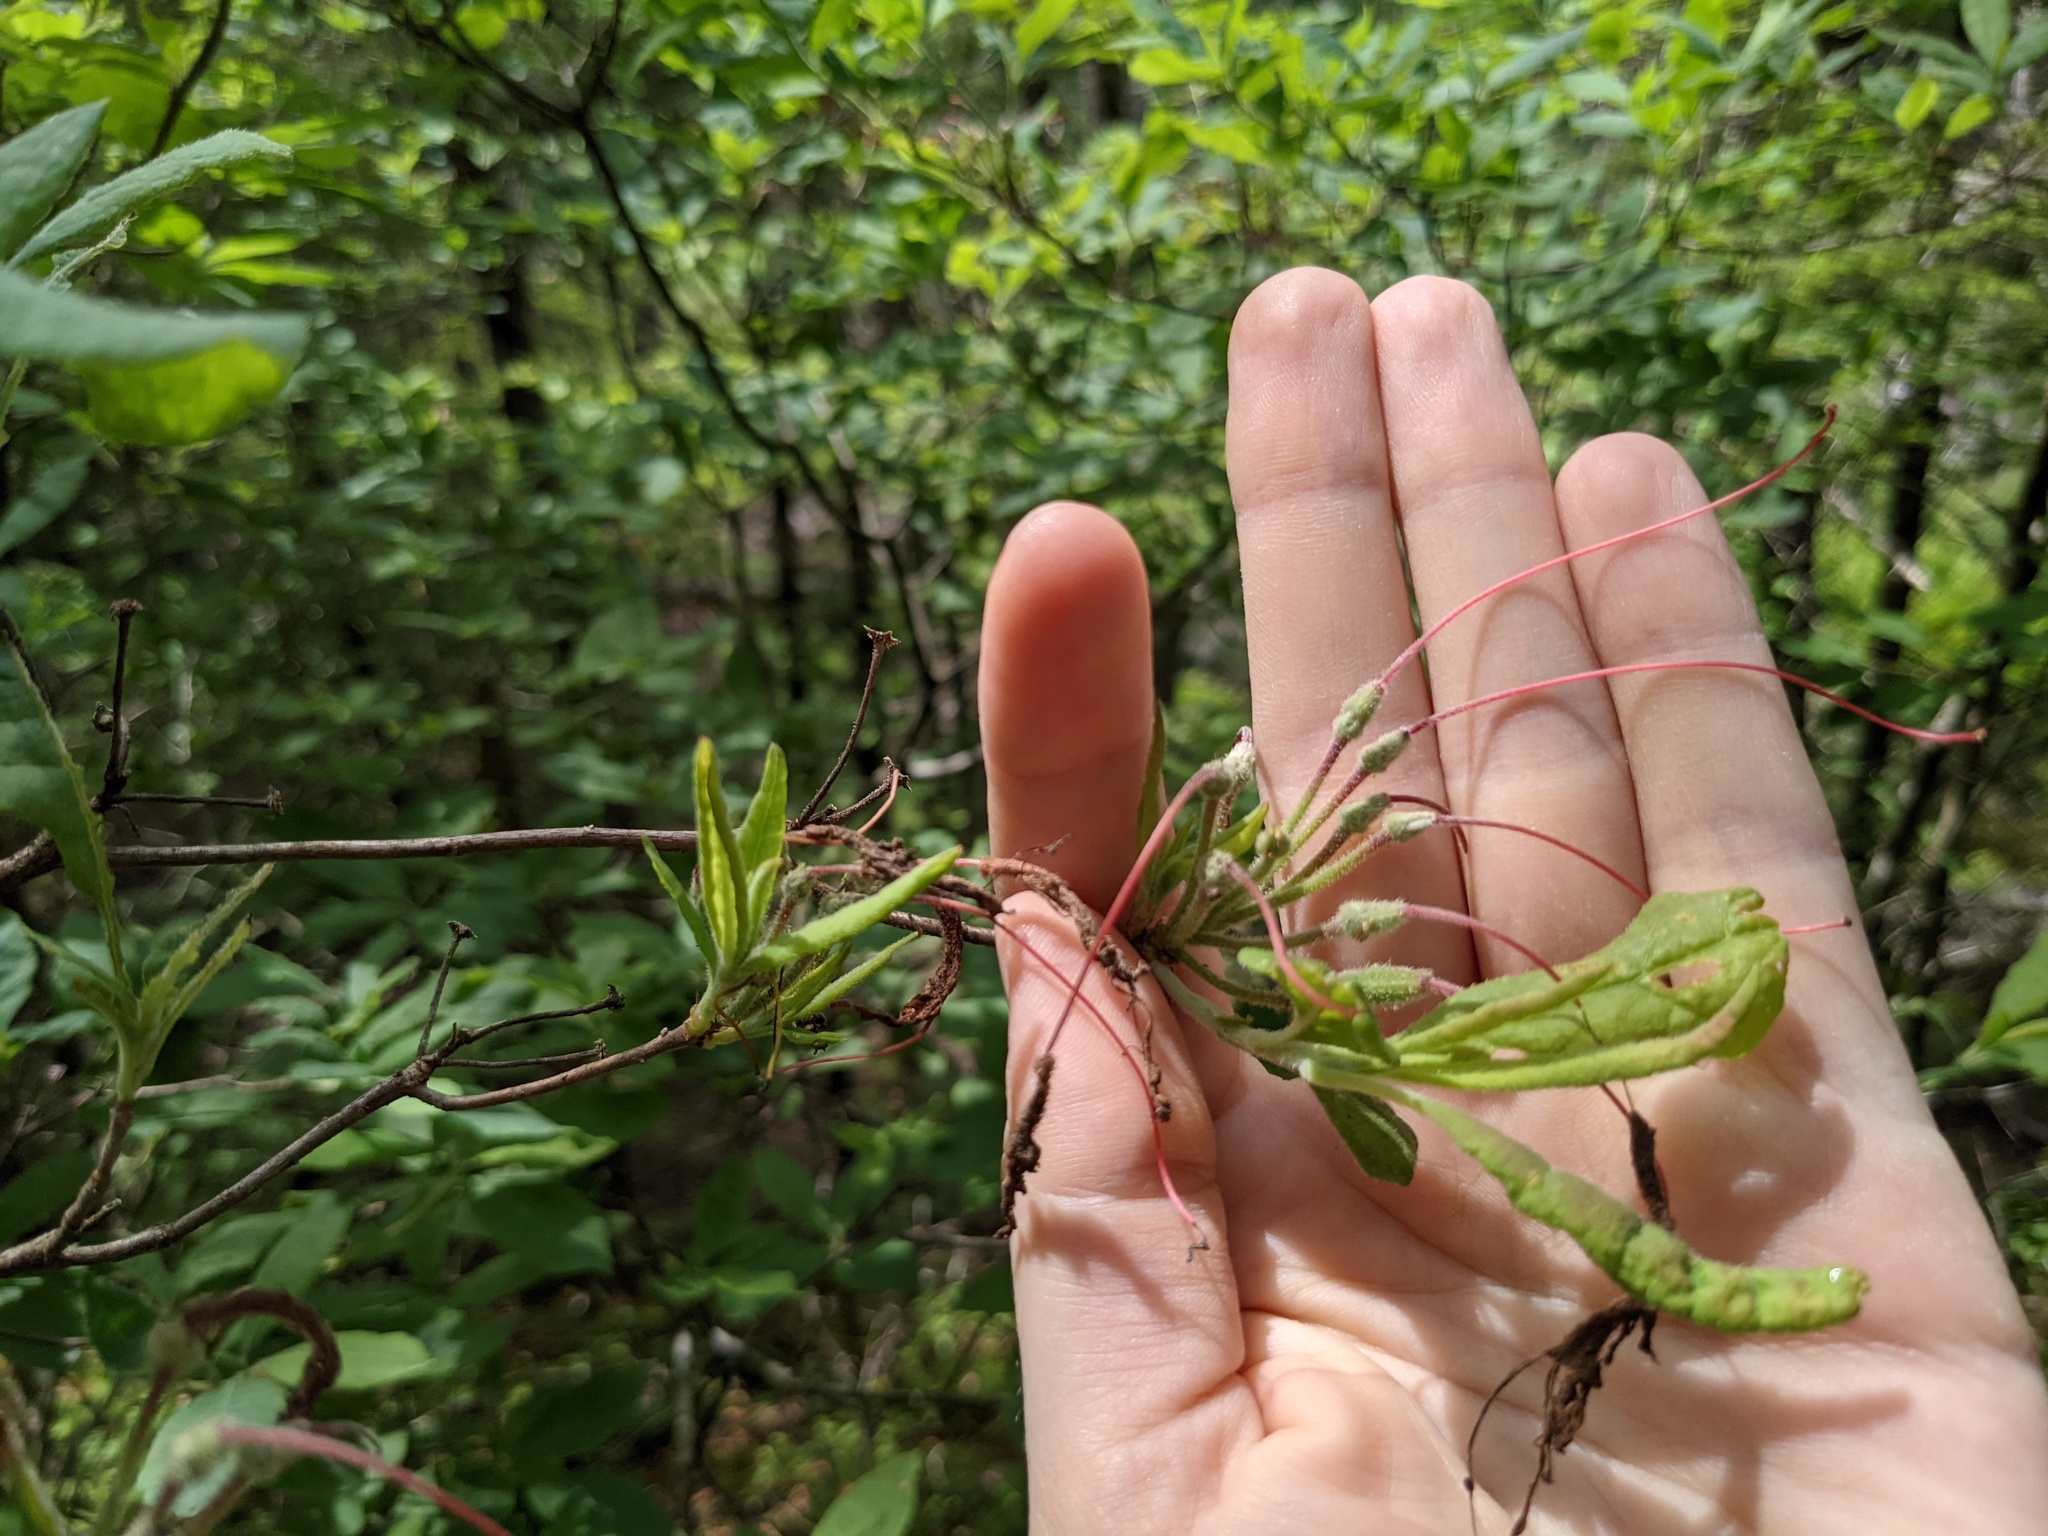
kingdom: Plantae
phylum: Tracheophyta
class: Magnoliopsida
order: Ericales
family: Ericaceae
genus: Rhododendron
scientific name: Rhododendron roseum
